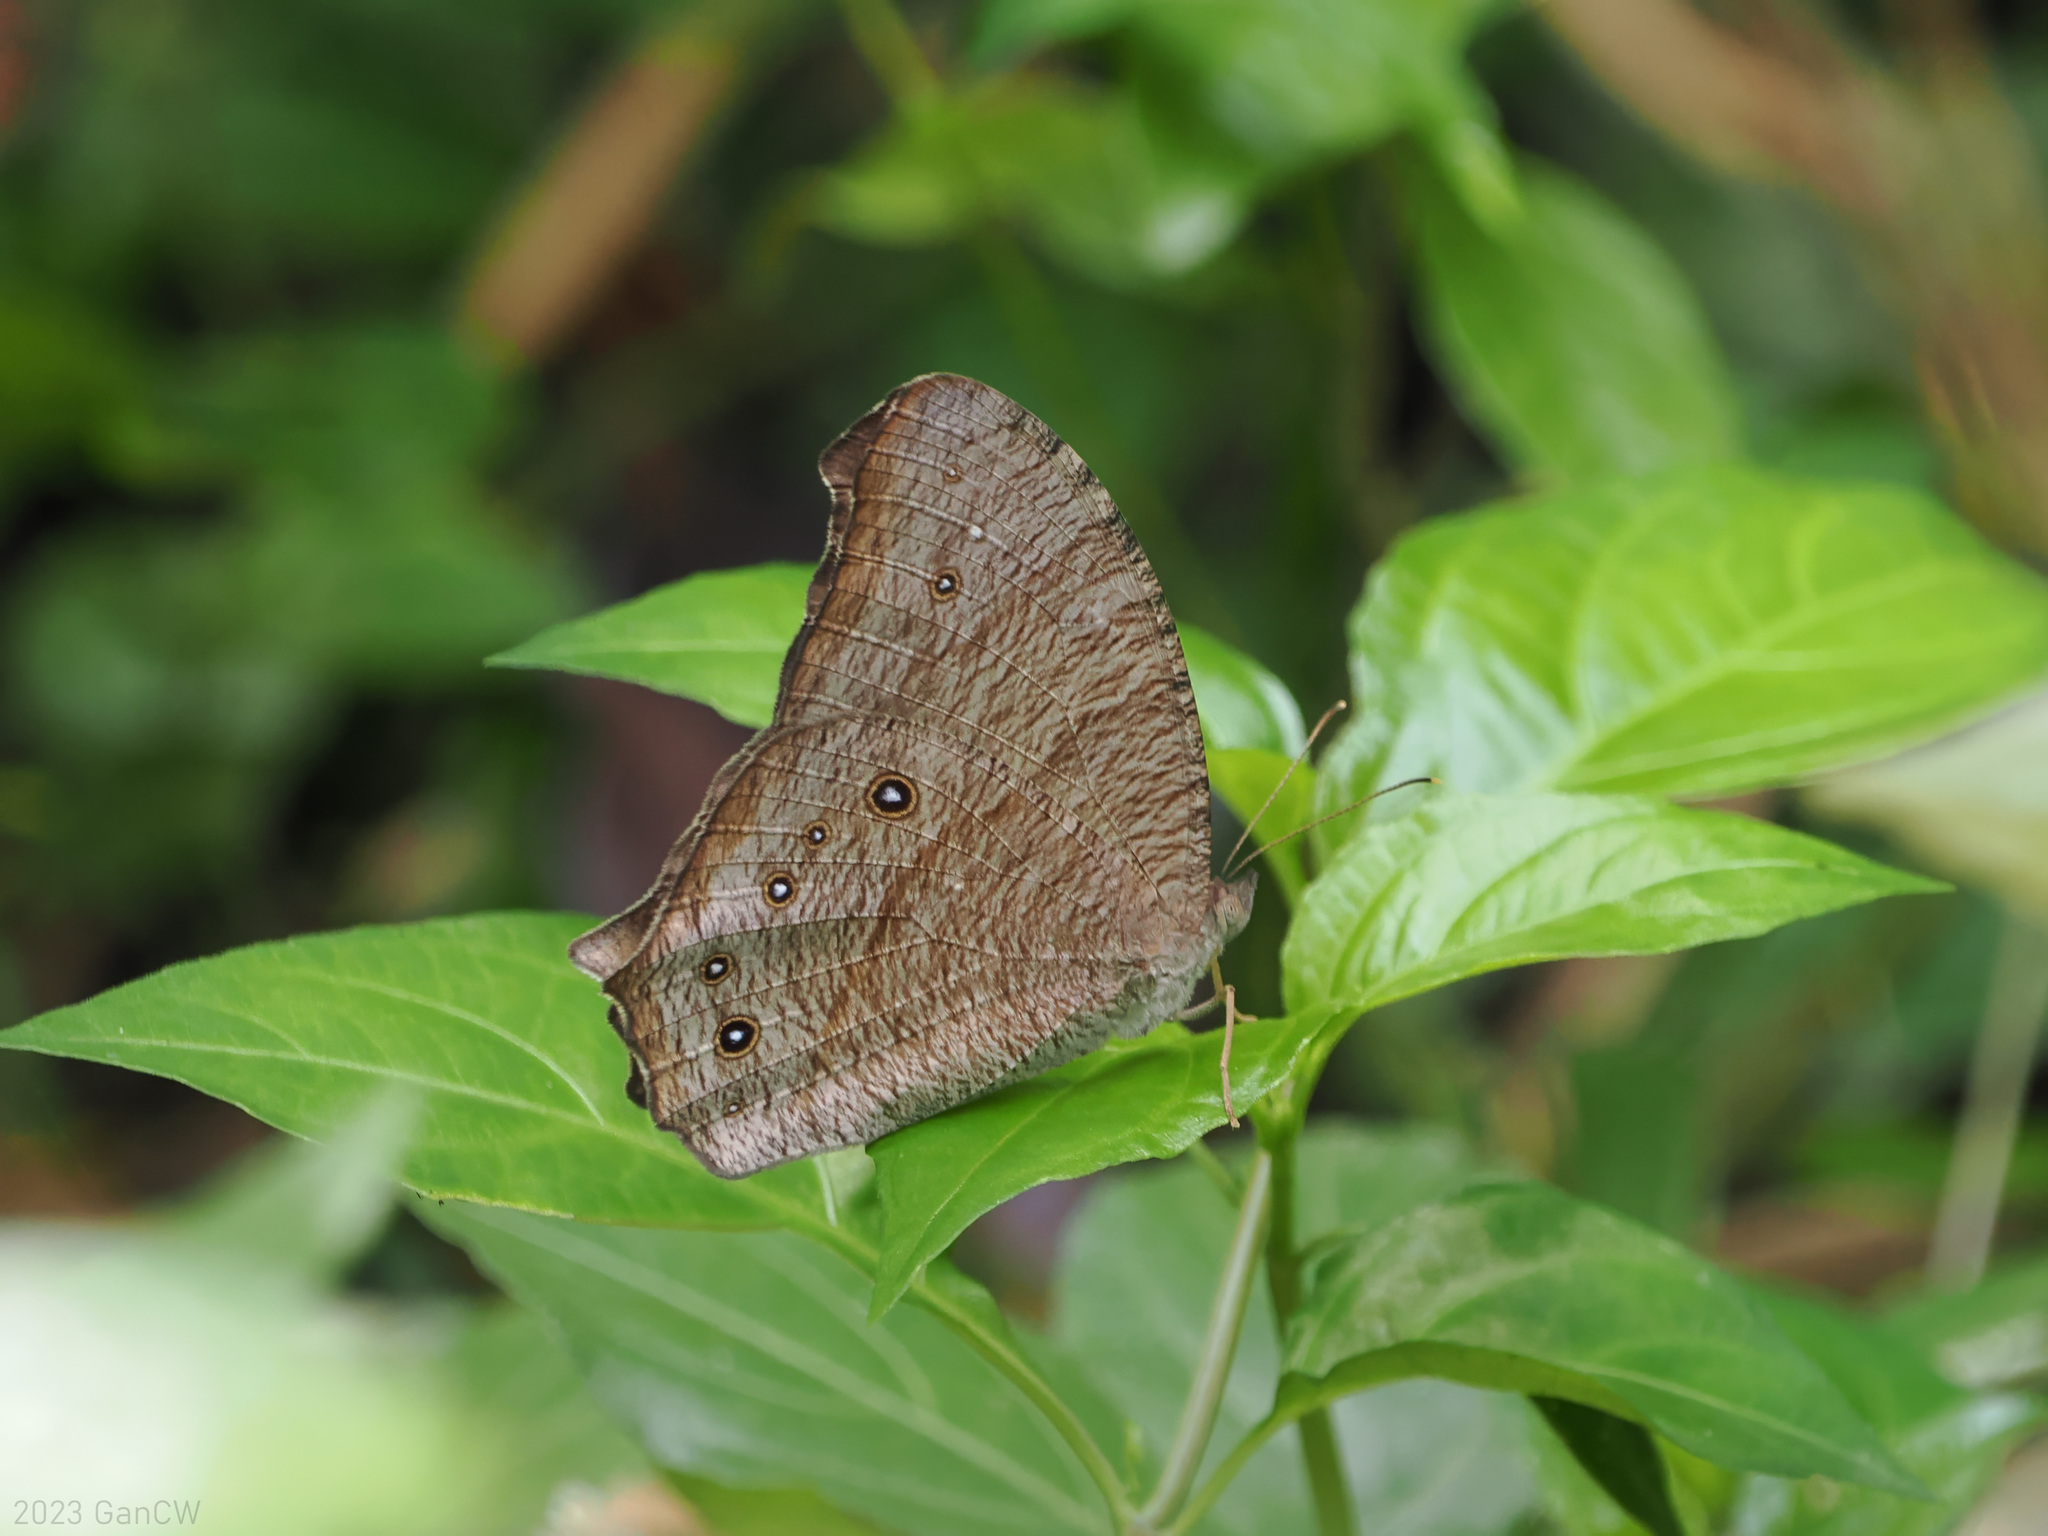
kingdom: Animalia
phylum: Arthropoda
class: Insecta
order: Lepidoptera
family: Nymphalidae
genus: Melanitis
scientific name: Melanitis leda
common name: Twilight brown
